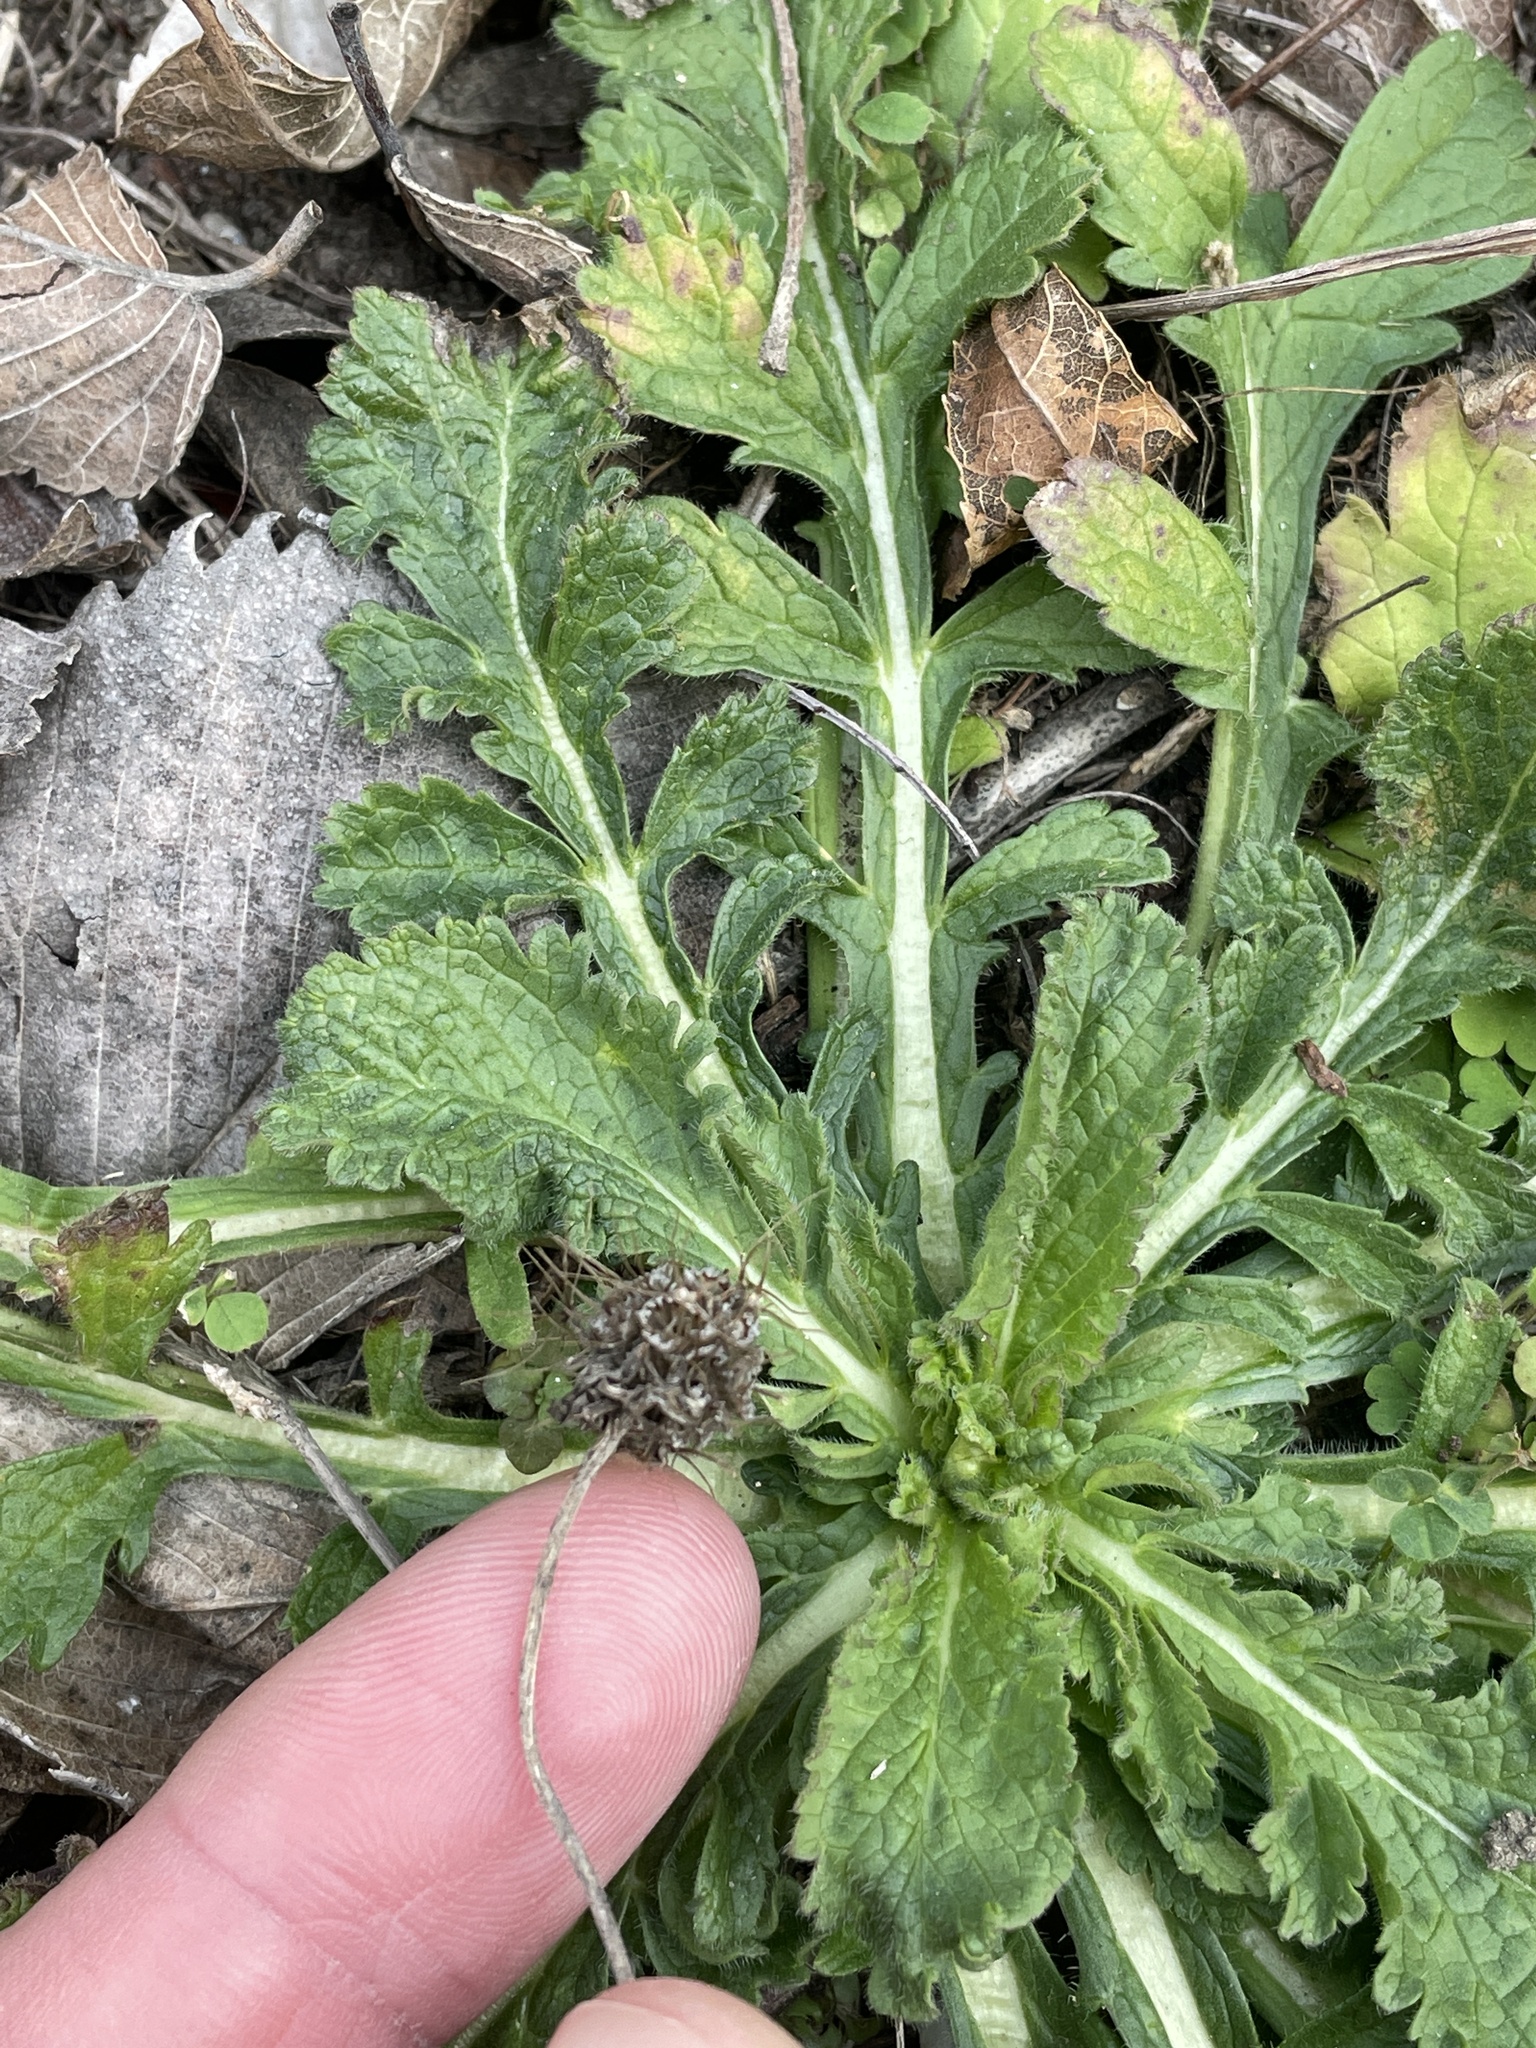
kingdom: Plantae
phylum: Tracheophyta
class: Magnoliopsida
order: Dipsacales
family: Caprifoliaceae
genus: Sixalix
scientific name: Sixalix atropurpurea
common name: Sweet scabious
